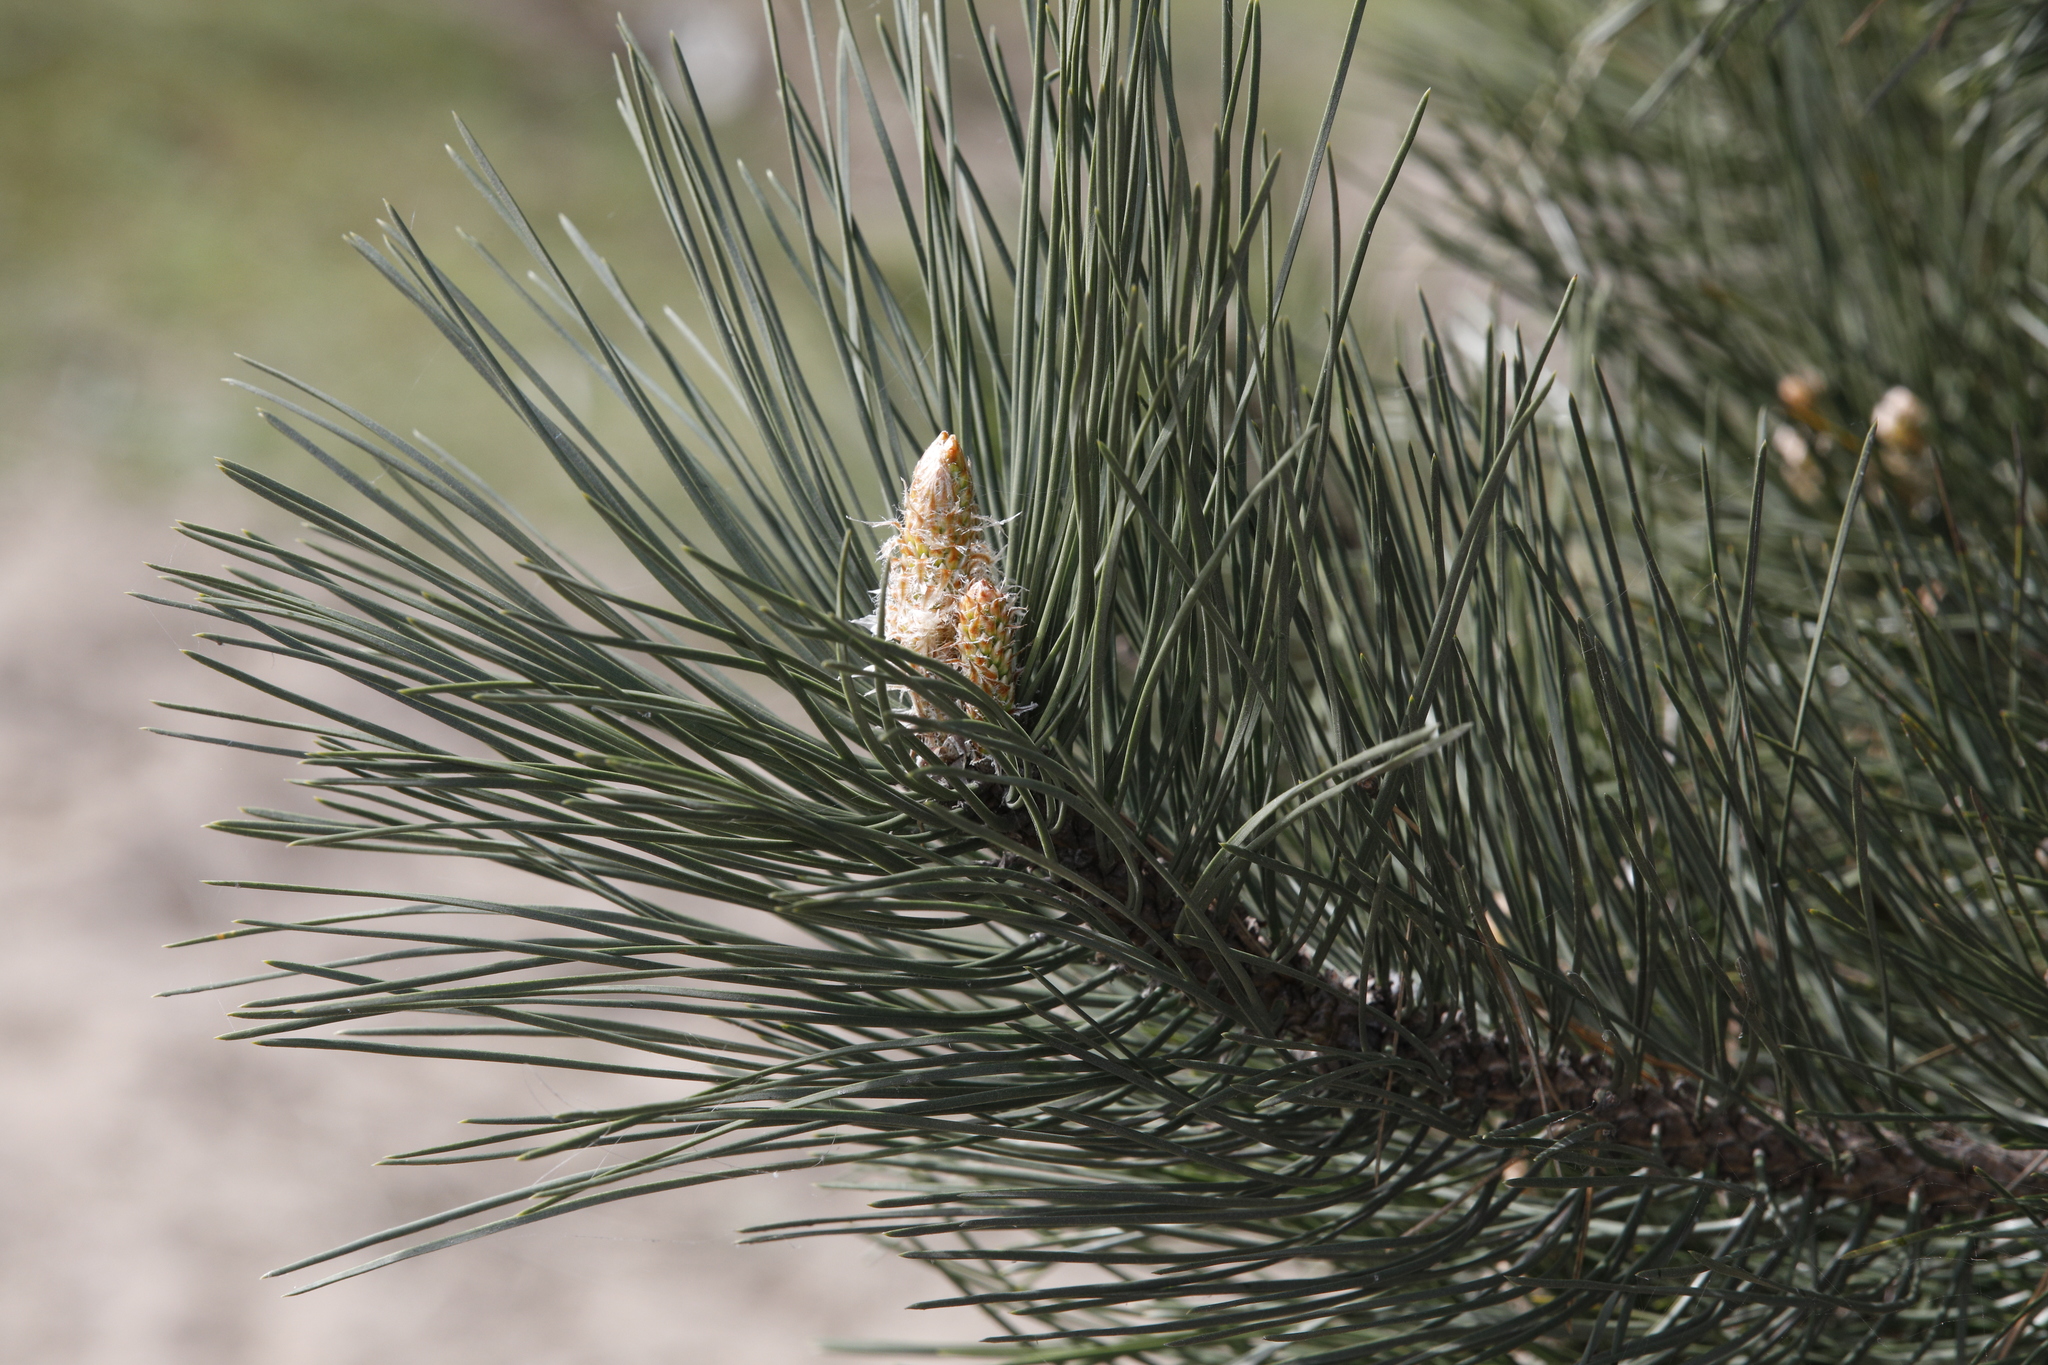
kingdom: Plantae
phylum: Tracheophyta
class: Pinopsida
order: Pinales
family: Pinaceae
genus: Pinus
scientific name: Pinus sylvestris
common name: Scots pine
